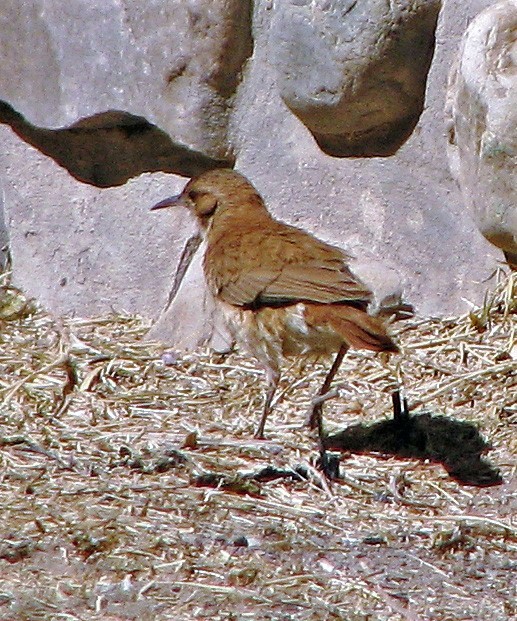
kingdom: Animalia
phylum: Chordata
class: Aves
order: Passeriformes
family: Furnariidae
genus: Furnarius
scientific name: Furnarius rufus
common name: Rufous hornero
